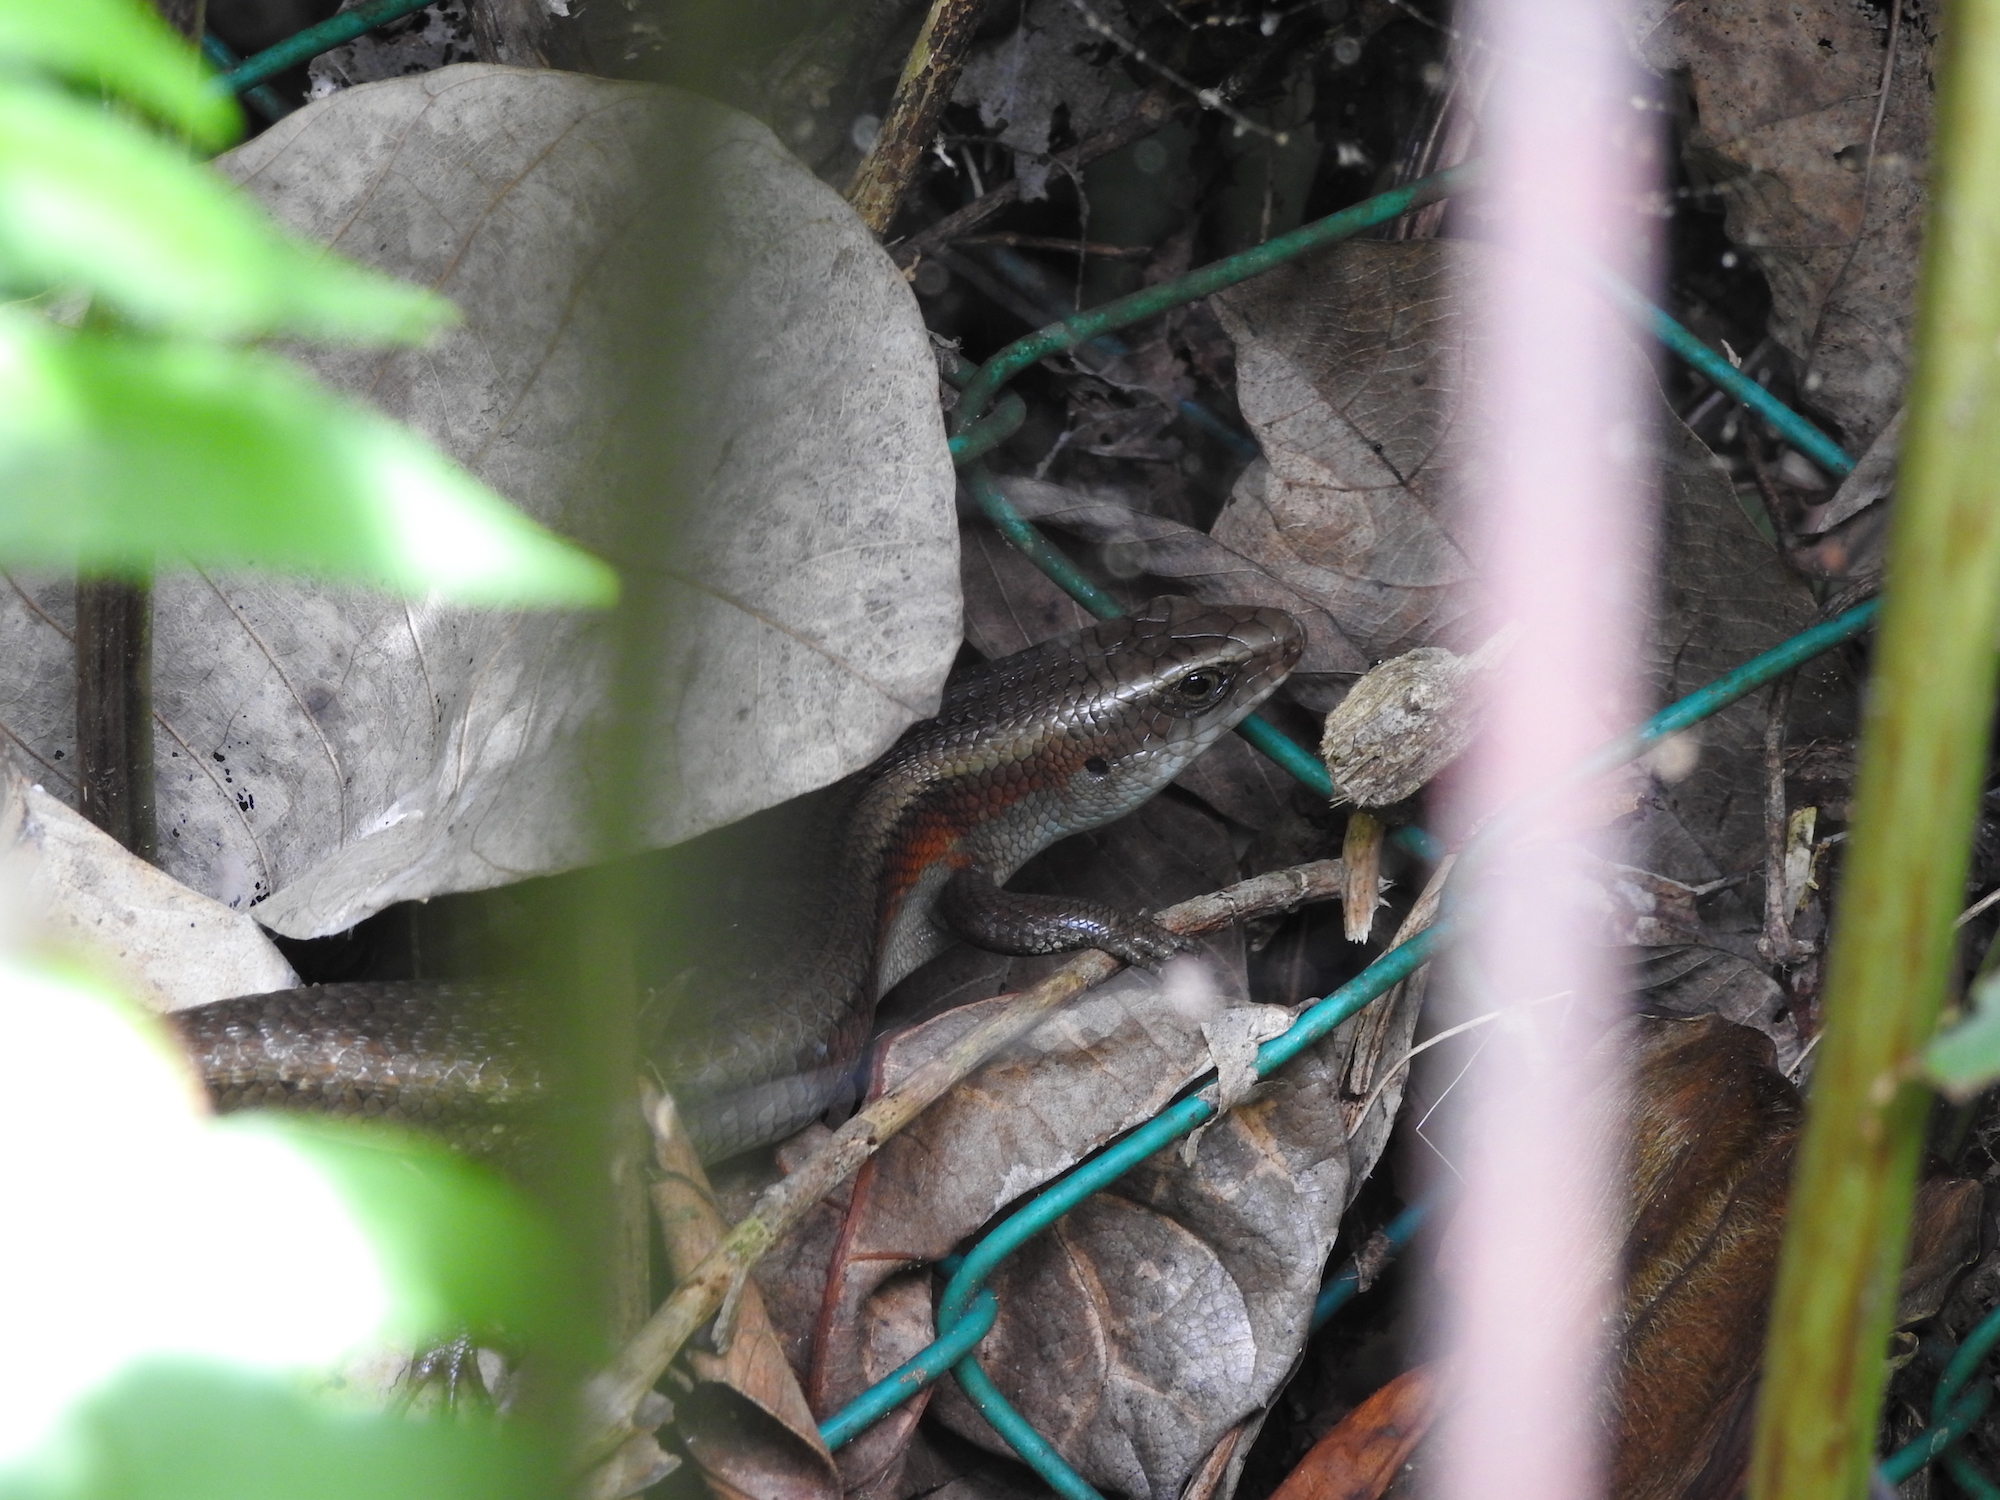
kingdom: Animalia
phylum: Chordata
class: Squamata
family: Scincidae
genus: Eutropis
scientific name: Eutropis multifasciata
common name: Common mabuya
